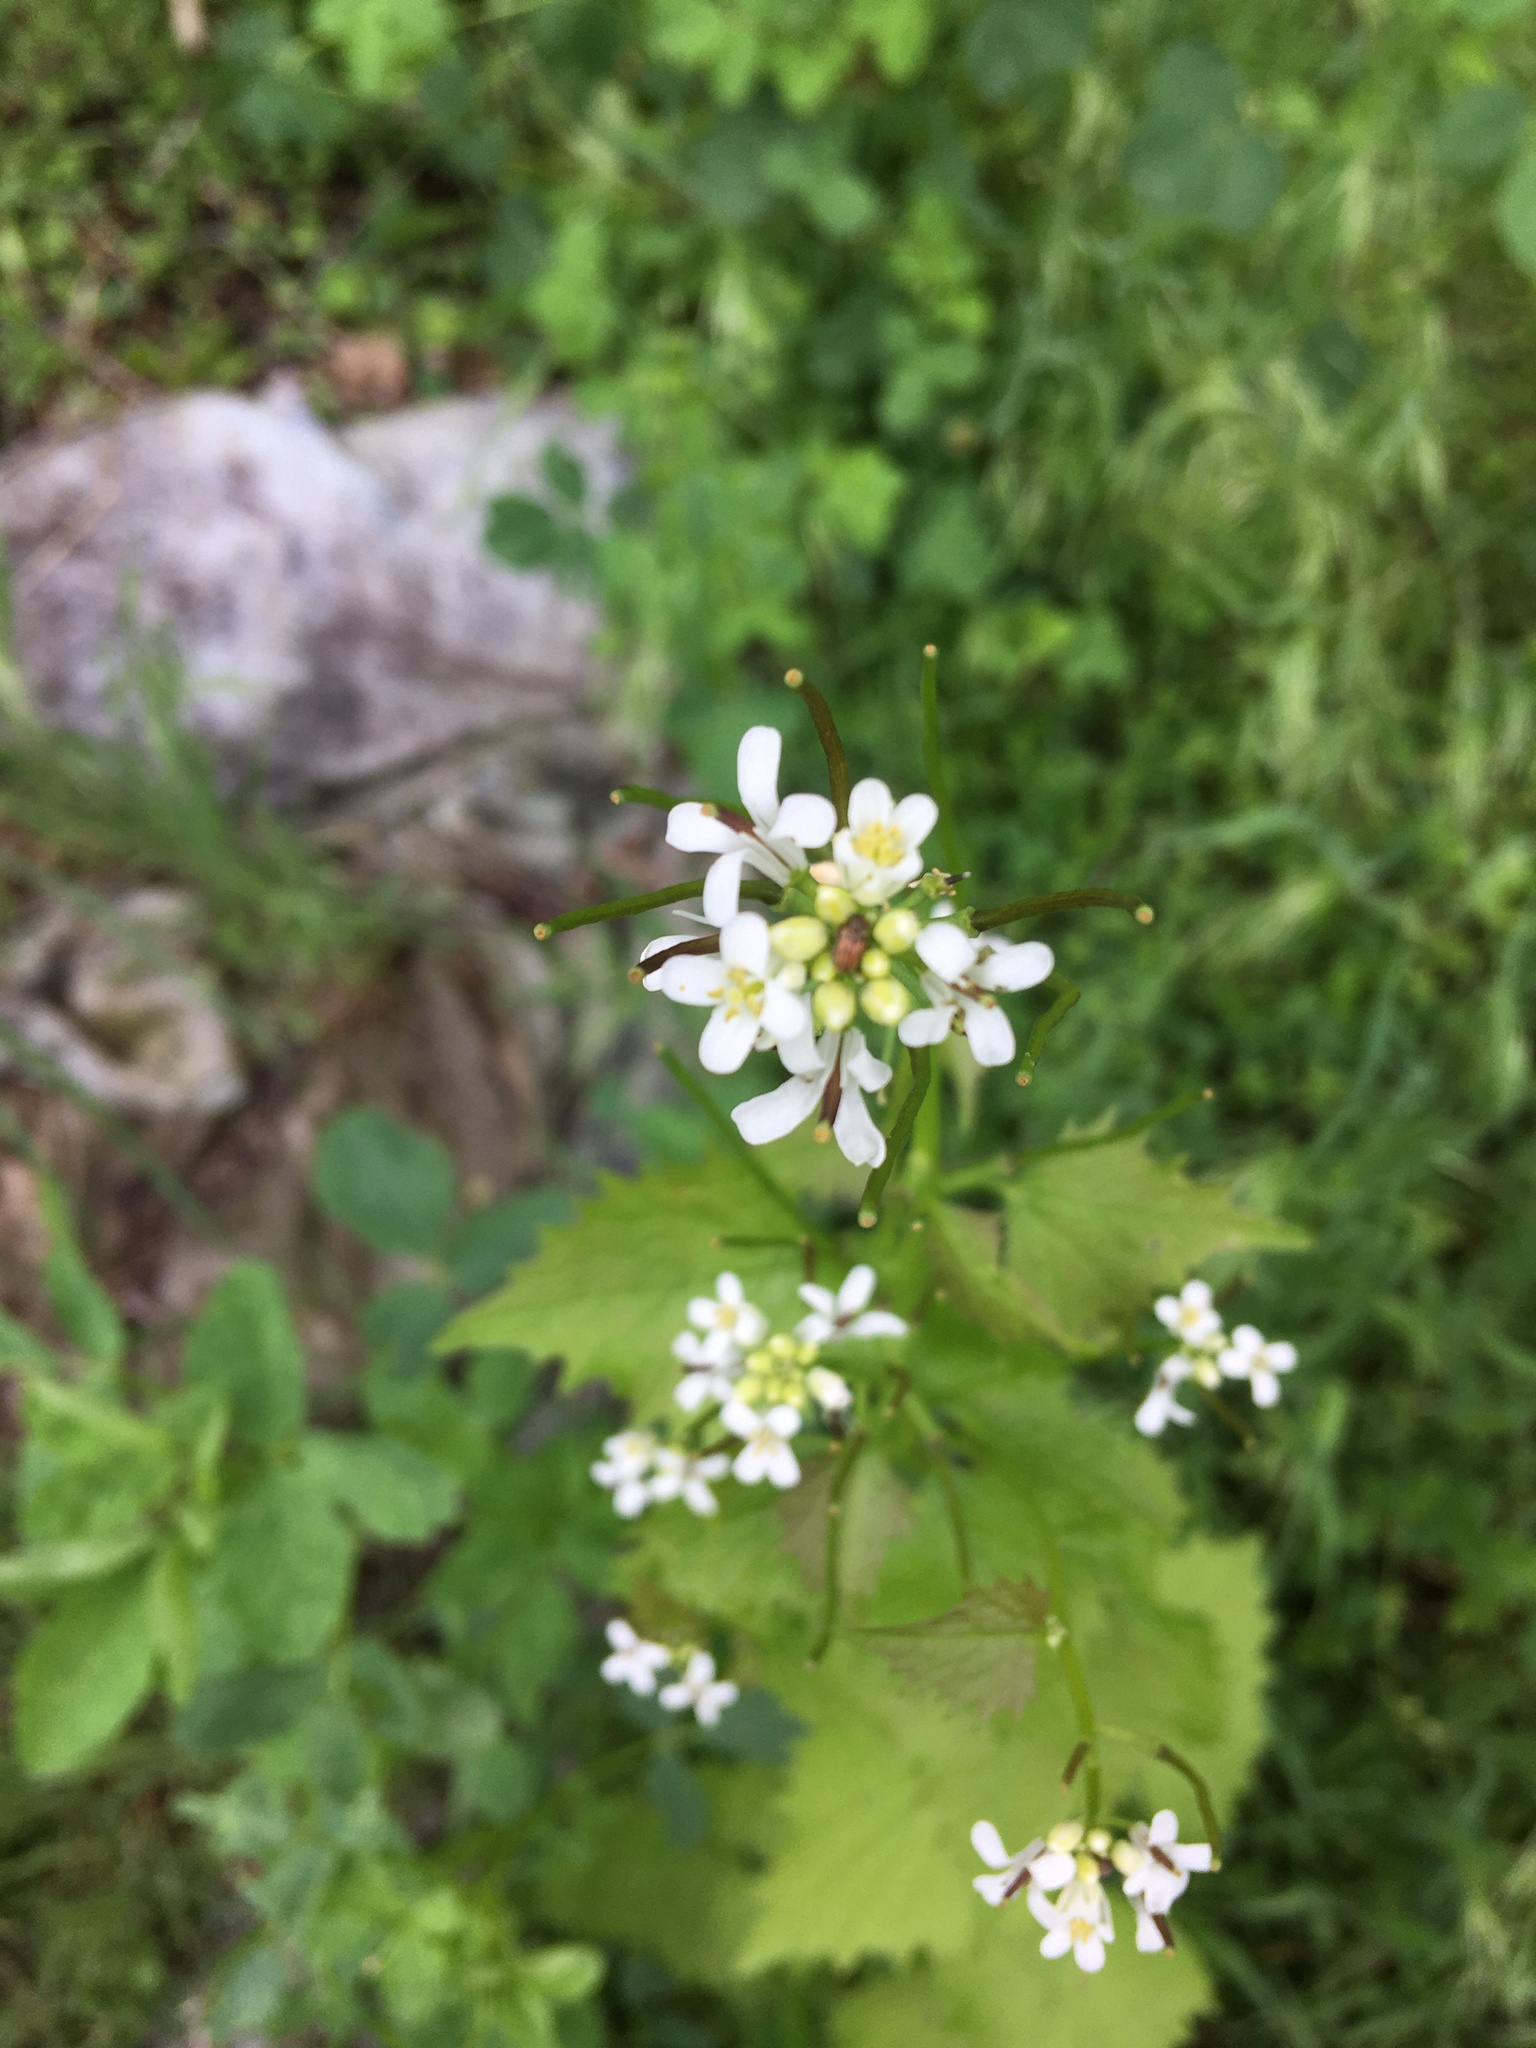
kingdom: Plantae
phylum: Tracheophyta
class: Magnoliopsida
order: Brassicales
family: Brassicaceae
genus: Alliaria
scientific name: Alliaria petiolata
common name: Garlic mustard
